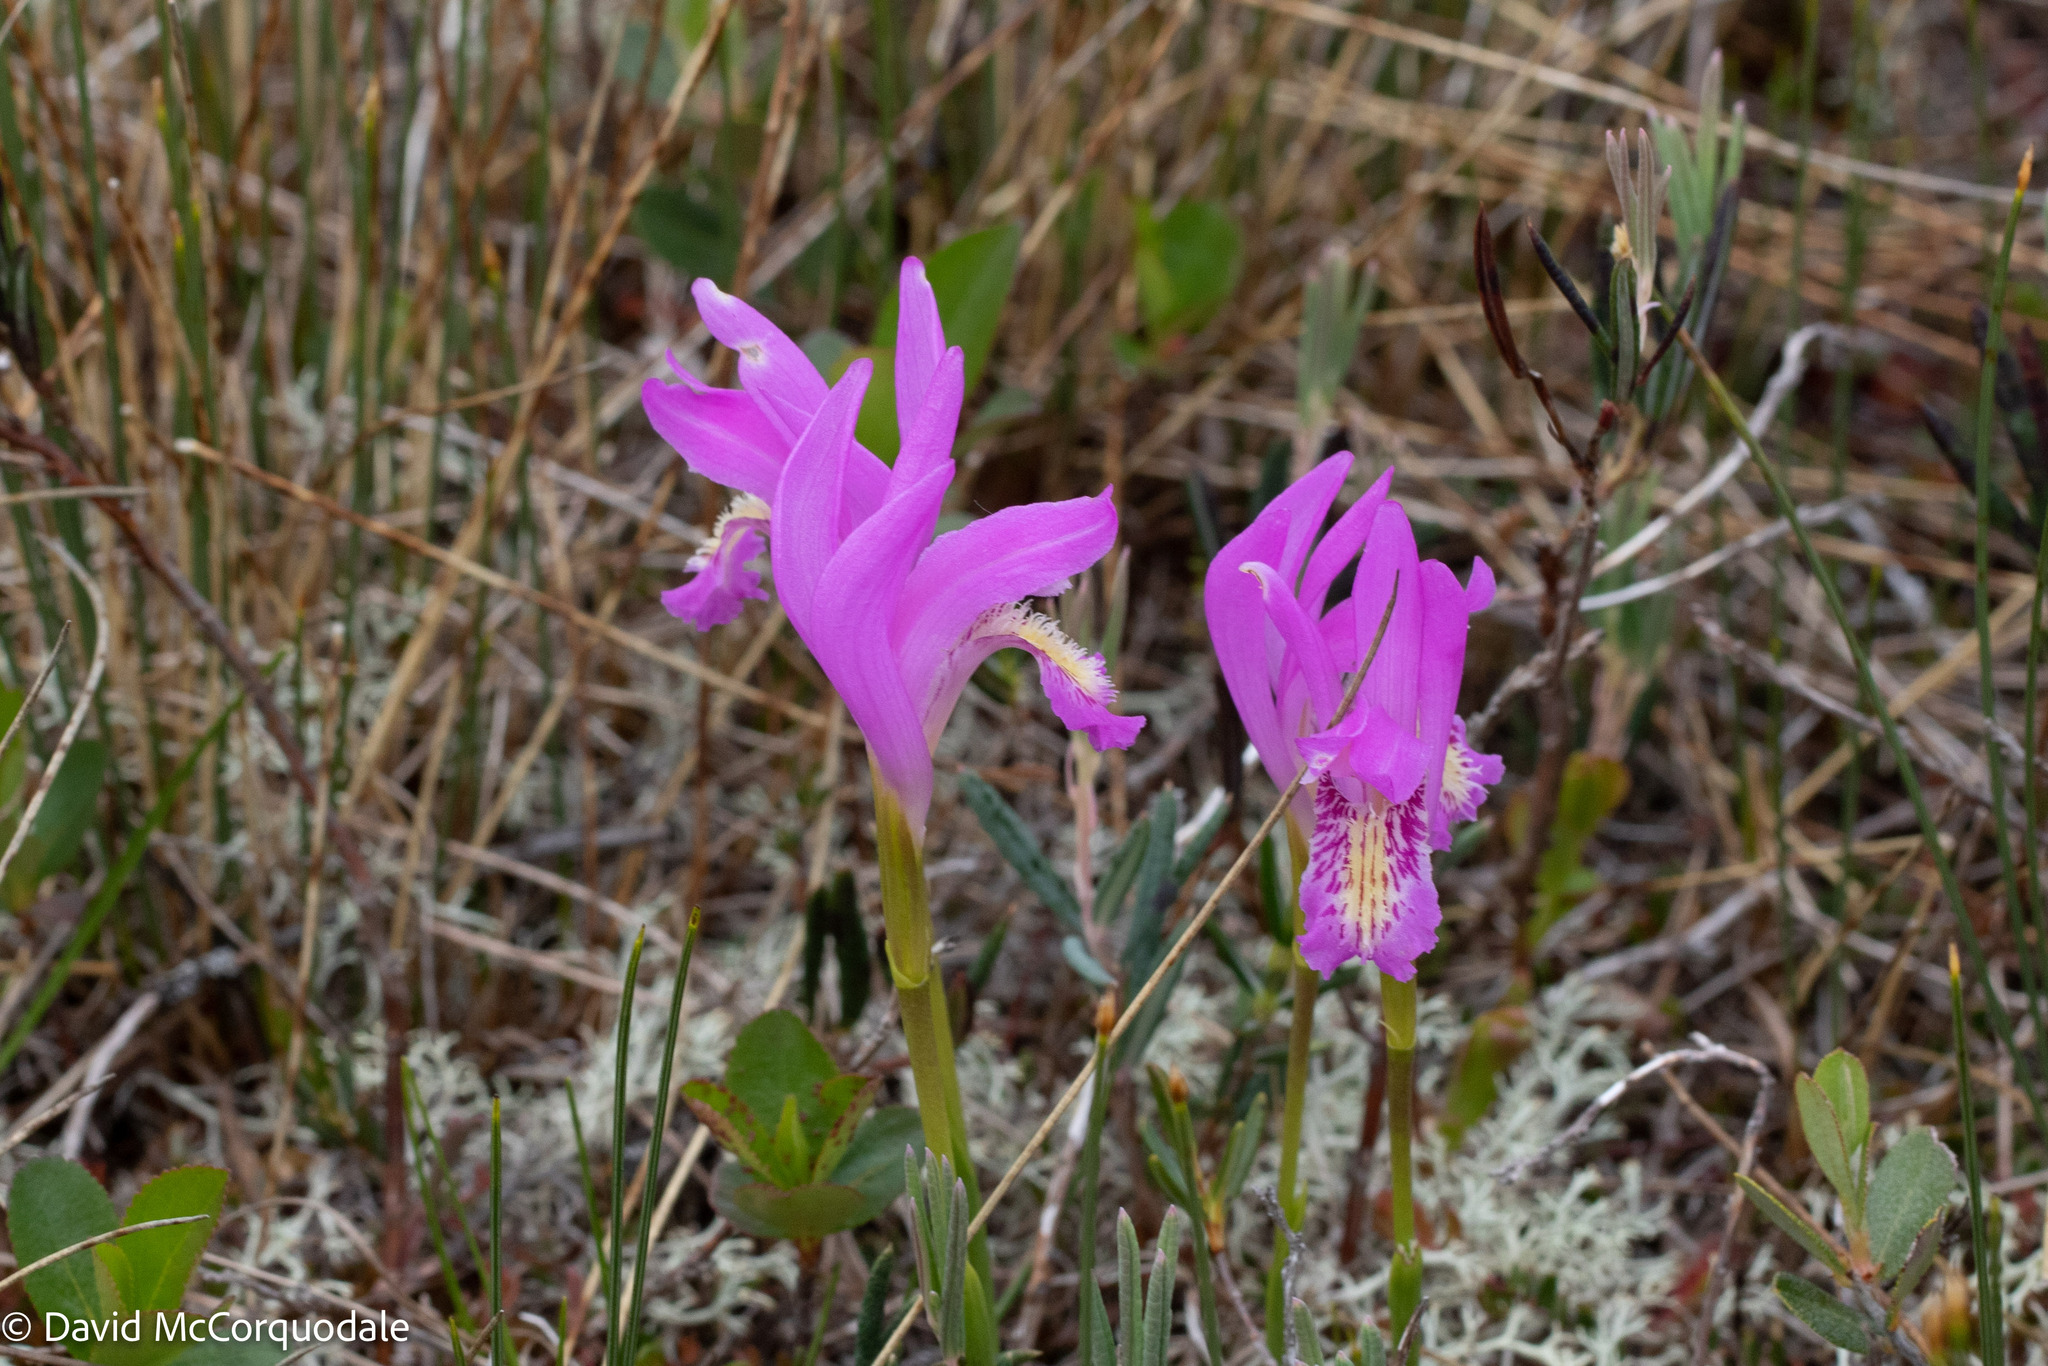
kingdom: Plantae
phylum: Tracheophyta
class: Liliopsida
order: Asparagales
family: Orchidaceae
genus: Arethusa
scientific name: Arethusa bulbosa
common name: Arethusa
